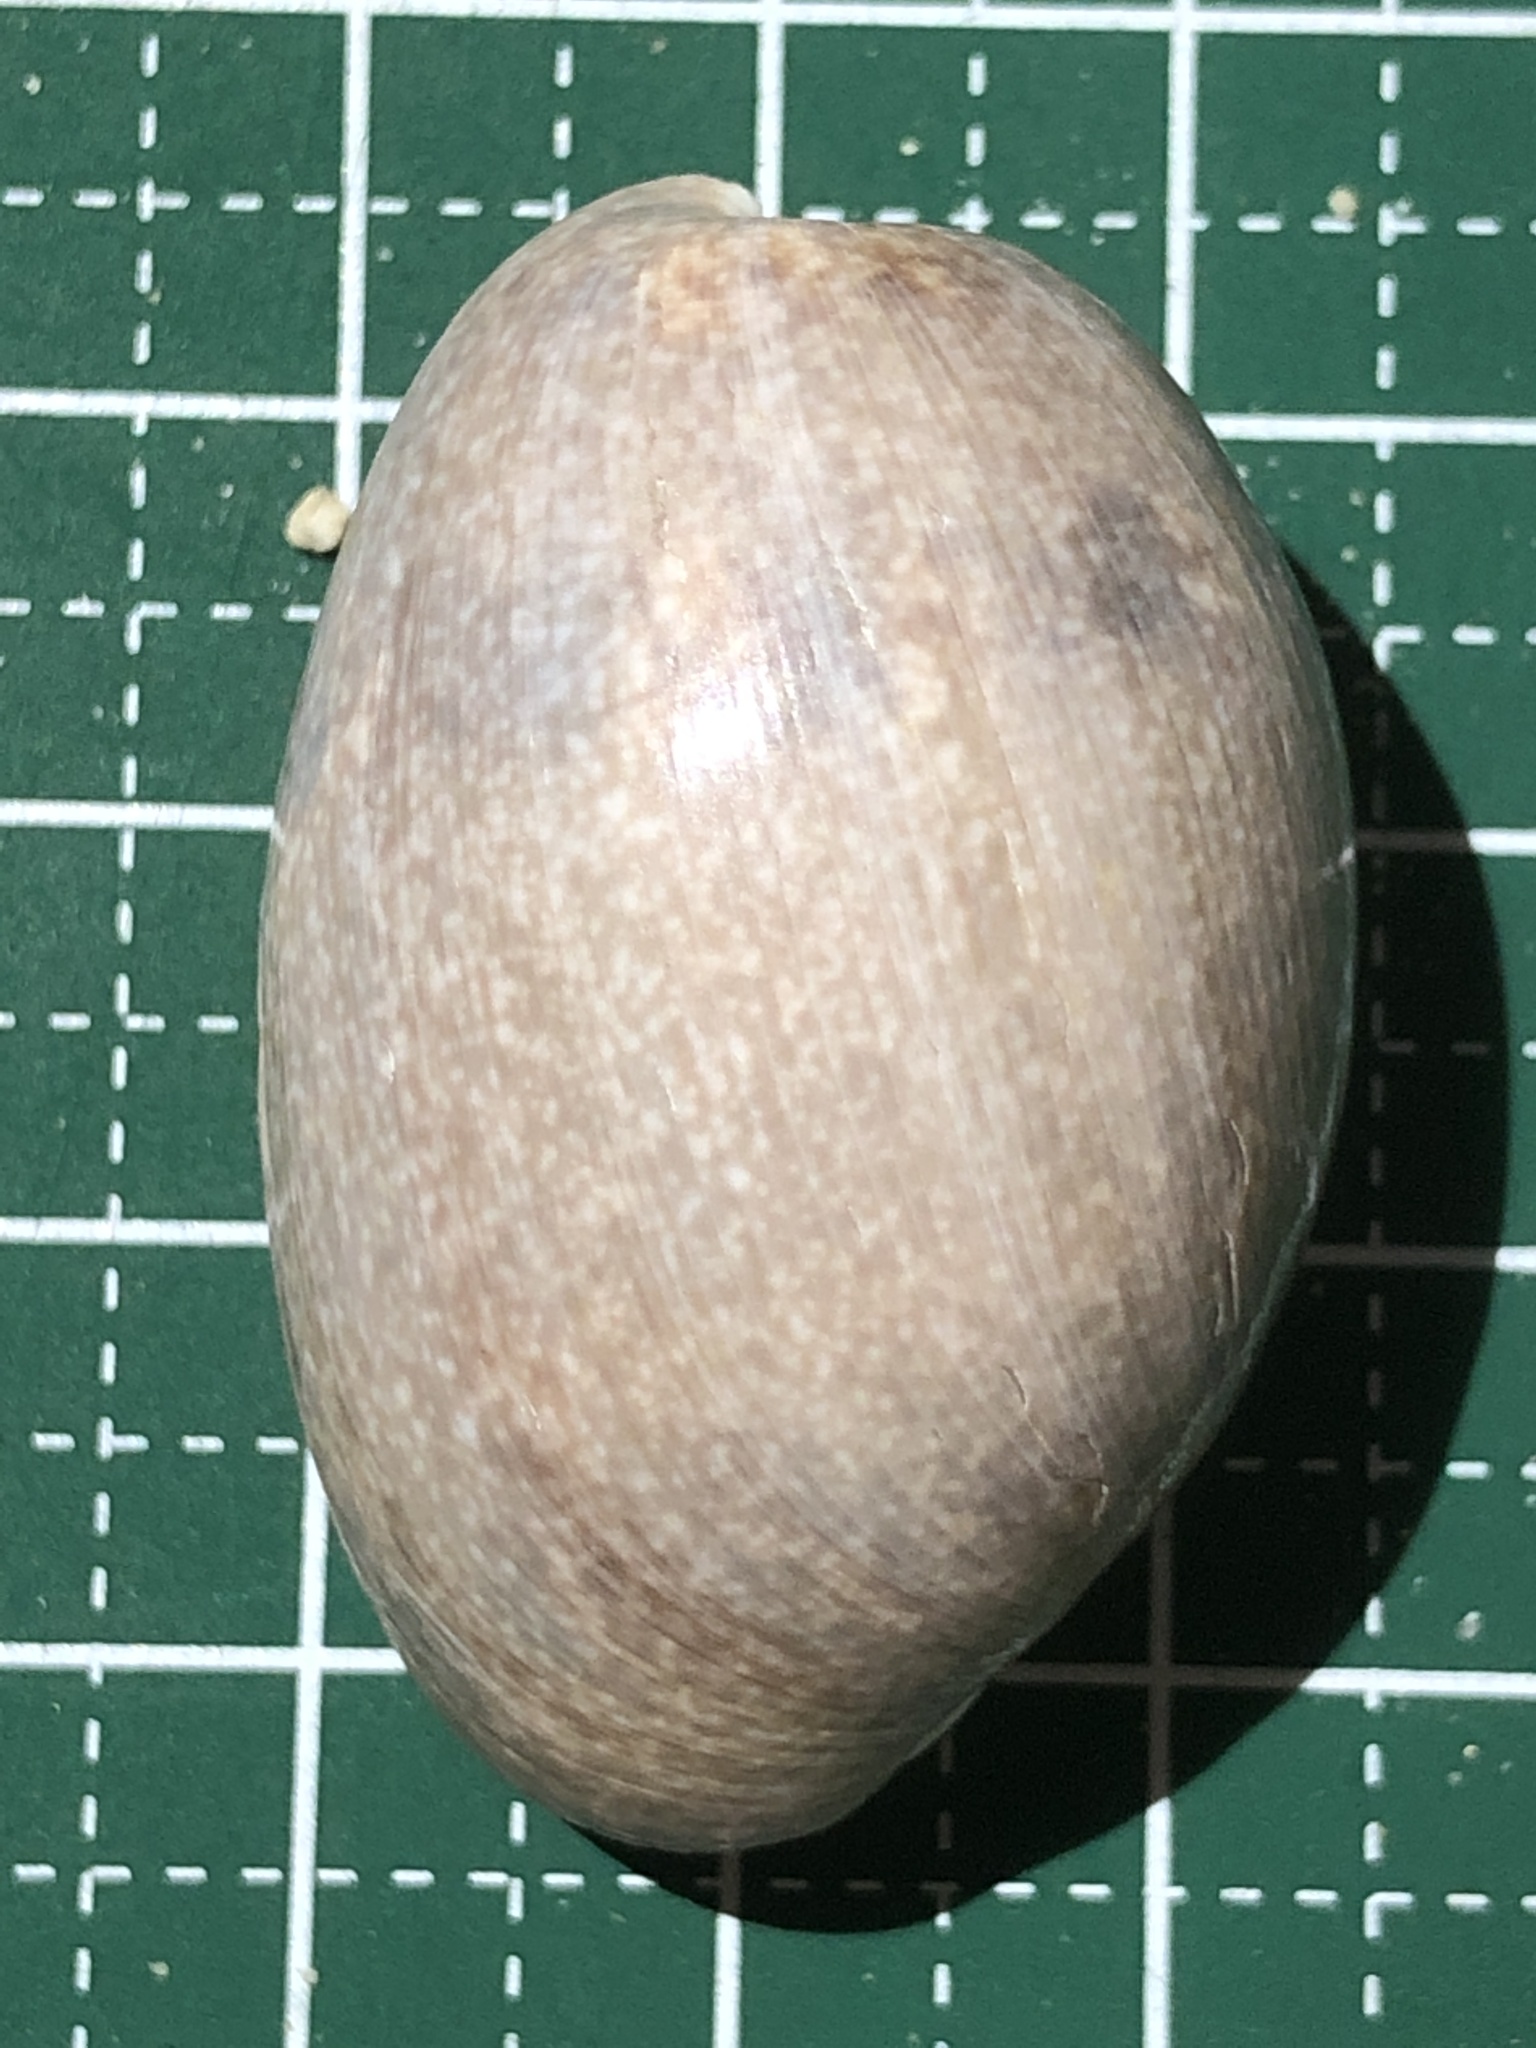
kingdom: Animalia
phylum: Mollusca
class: Gastropoda
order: Cephalaspidea
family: Bullidae
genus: Bulla
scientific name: Bulla vernicosa
